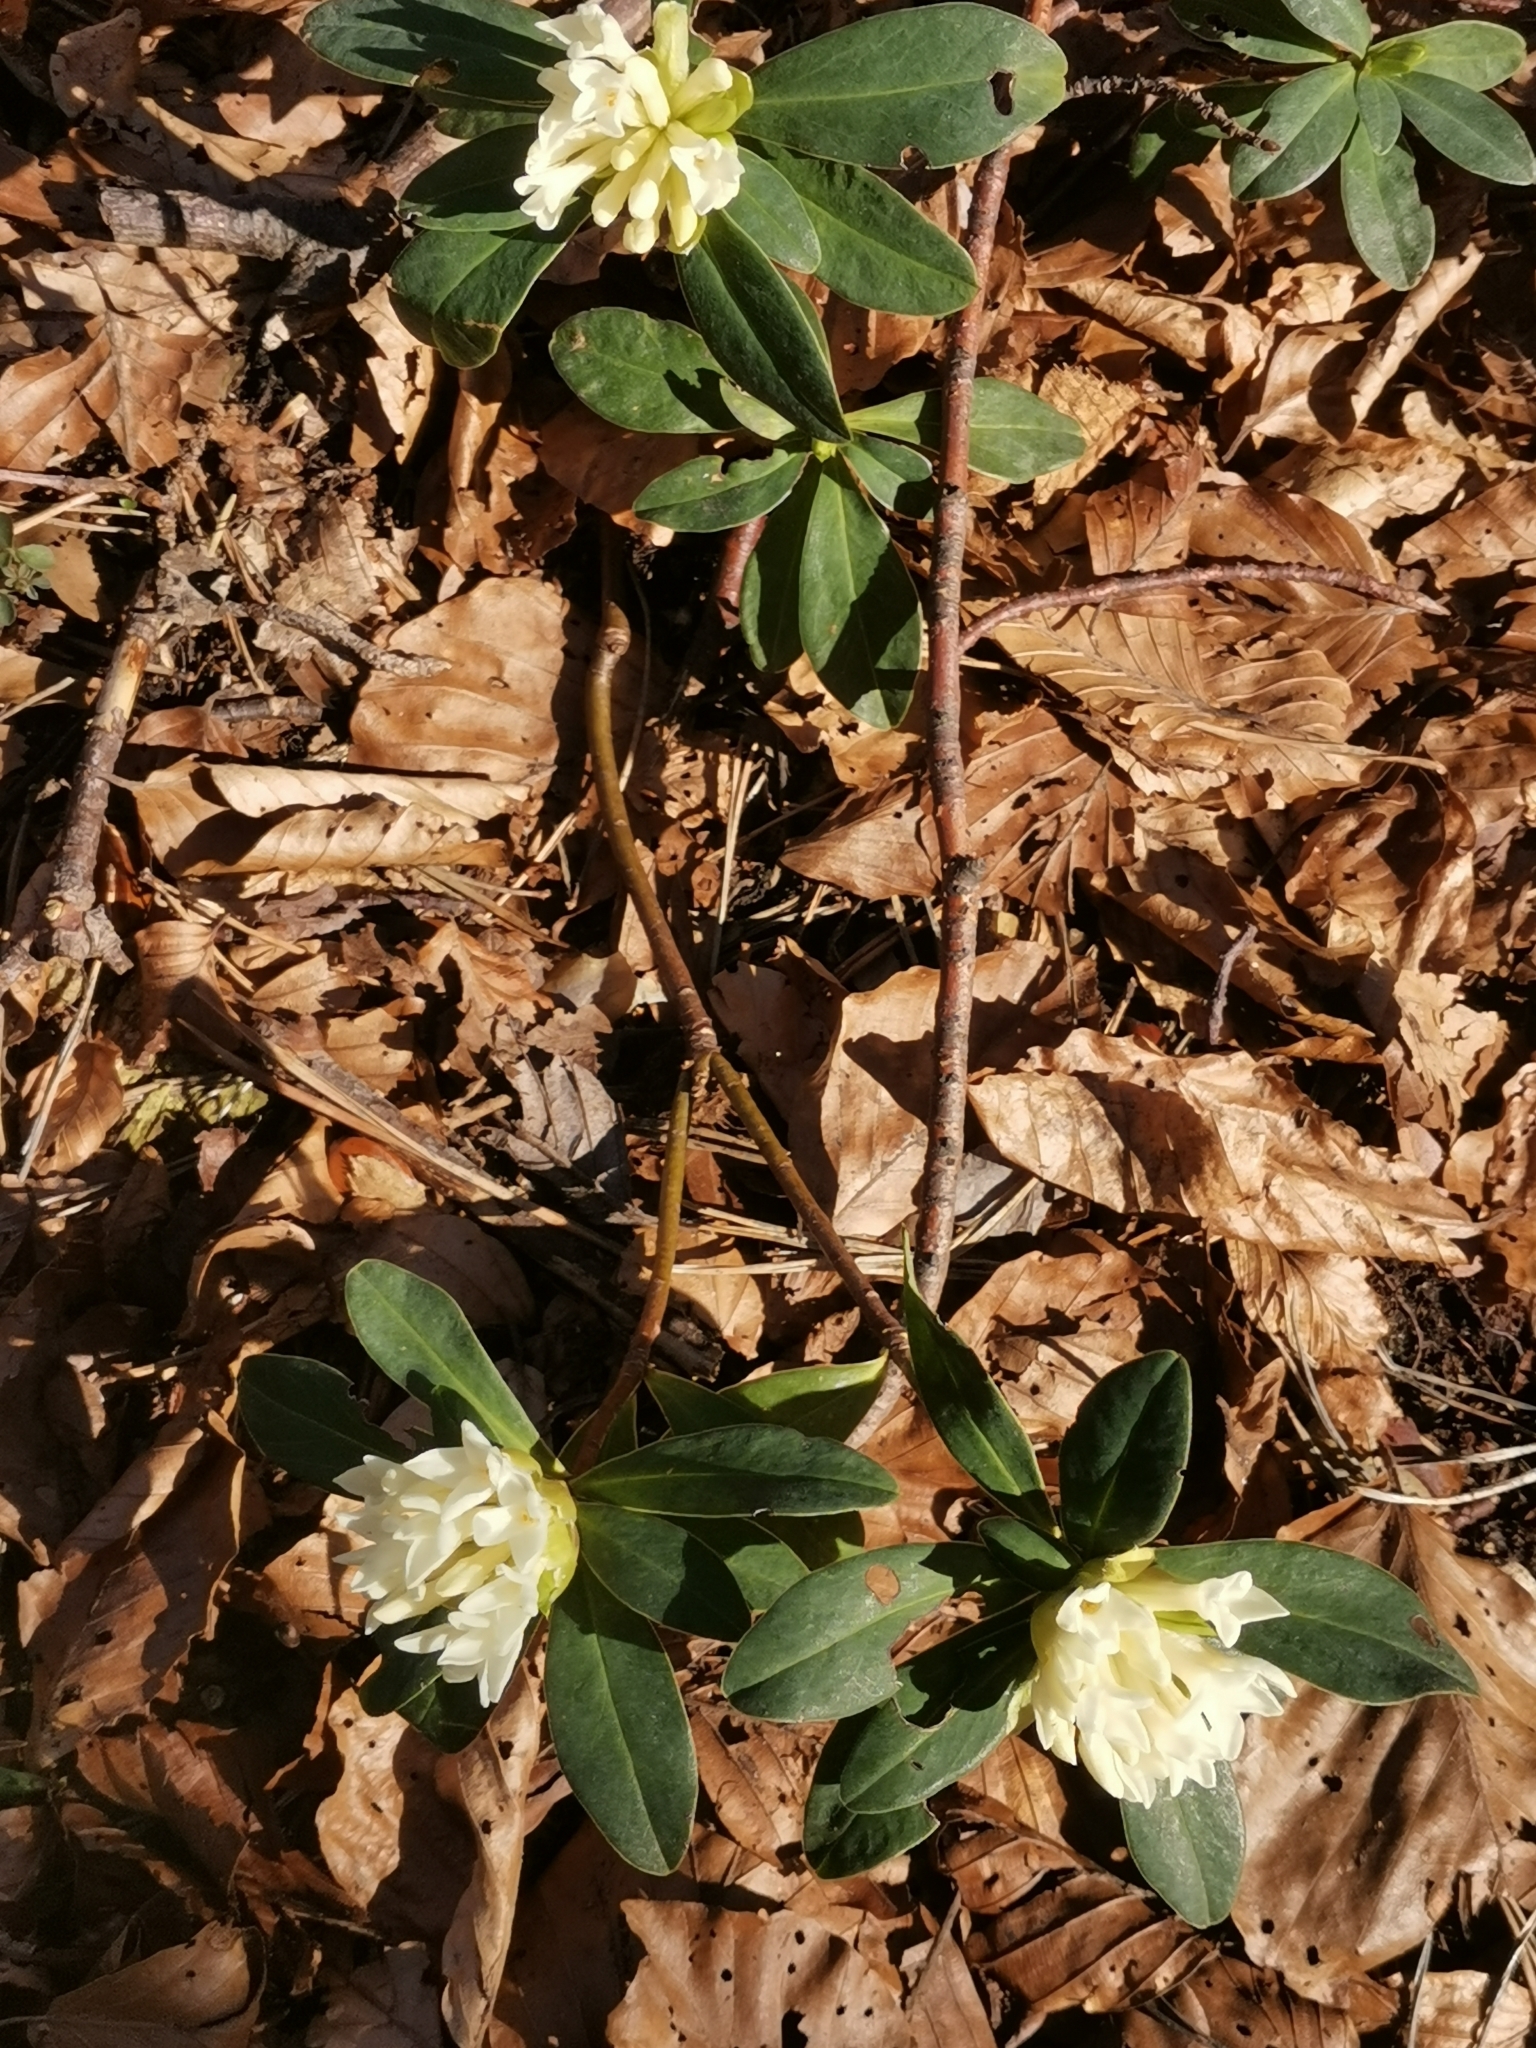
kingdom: Plantae
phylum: Tracheophyta
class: Magnoliopsida
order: Malvales
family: Thymelaeaceae
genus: Daphne
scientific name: Daphne blagayana
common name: Balkan daphne
